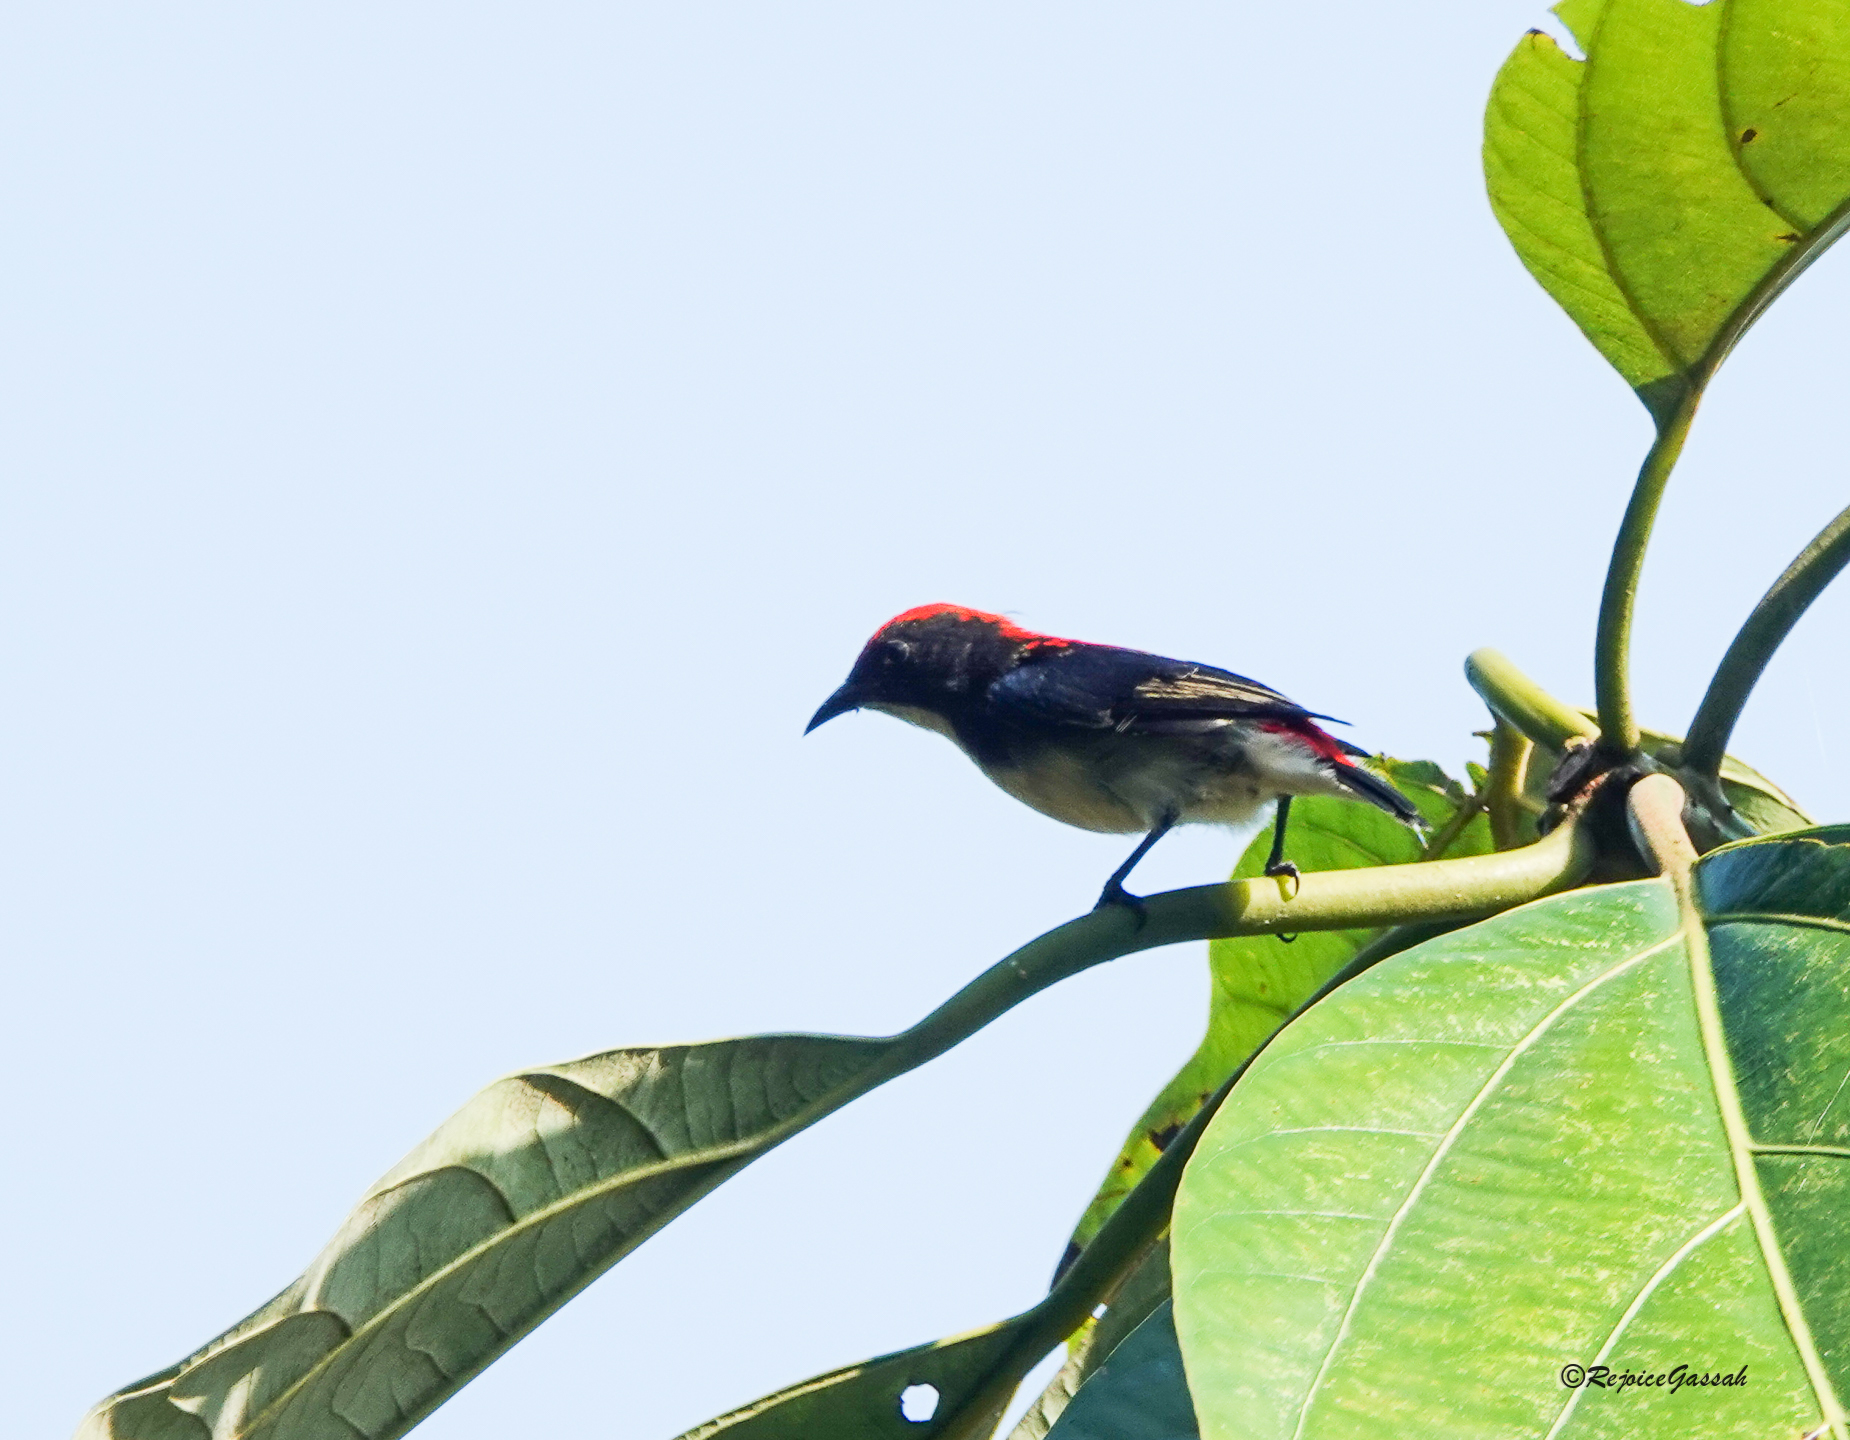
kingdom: Animalia
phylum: Chordata
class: Aves
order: Passeriformes
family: Dicaeidae
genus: Dicaeum
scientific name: Dicaeum cruentatum
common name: Scarlet-backed flowerpecker
